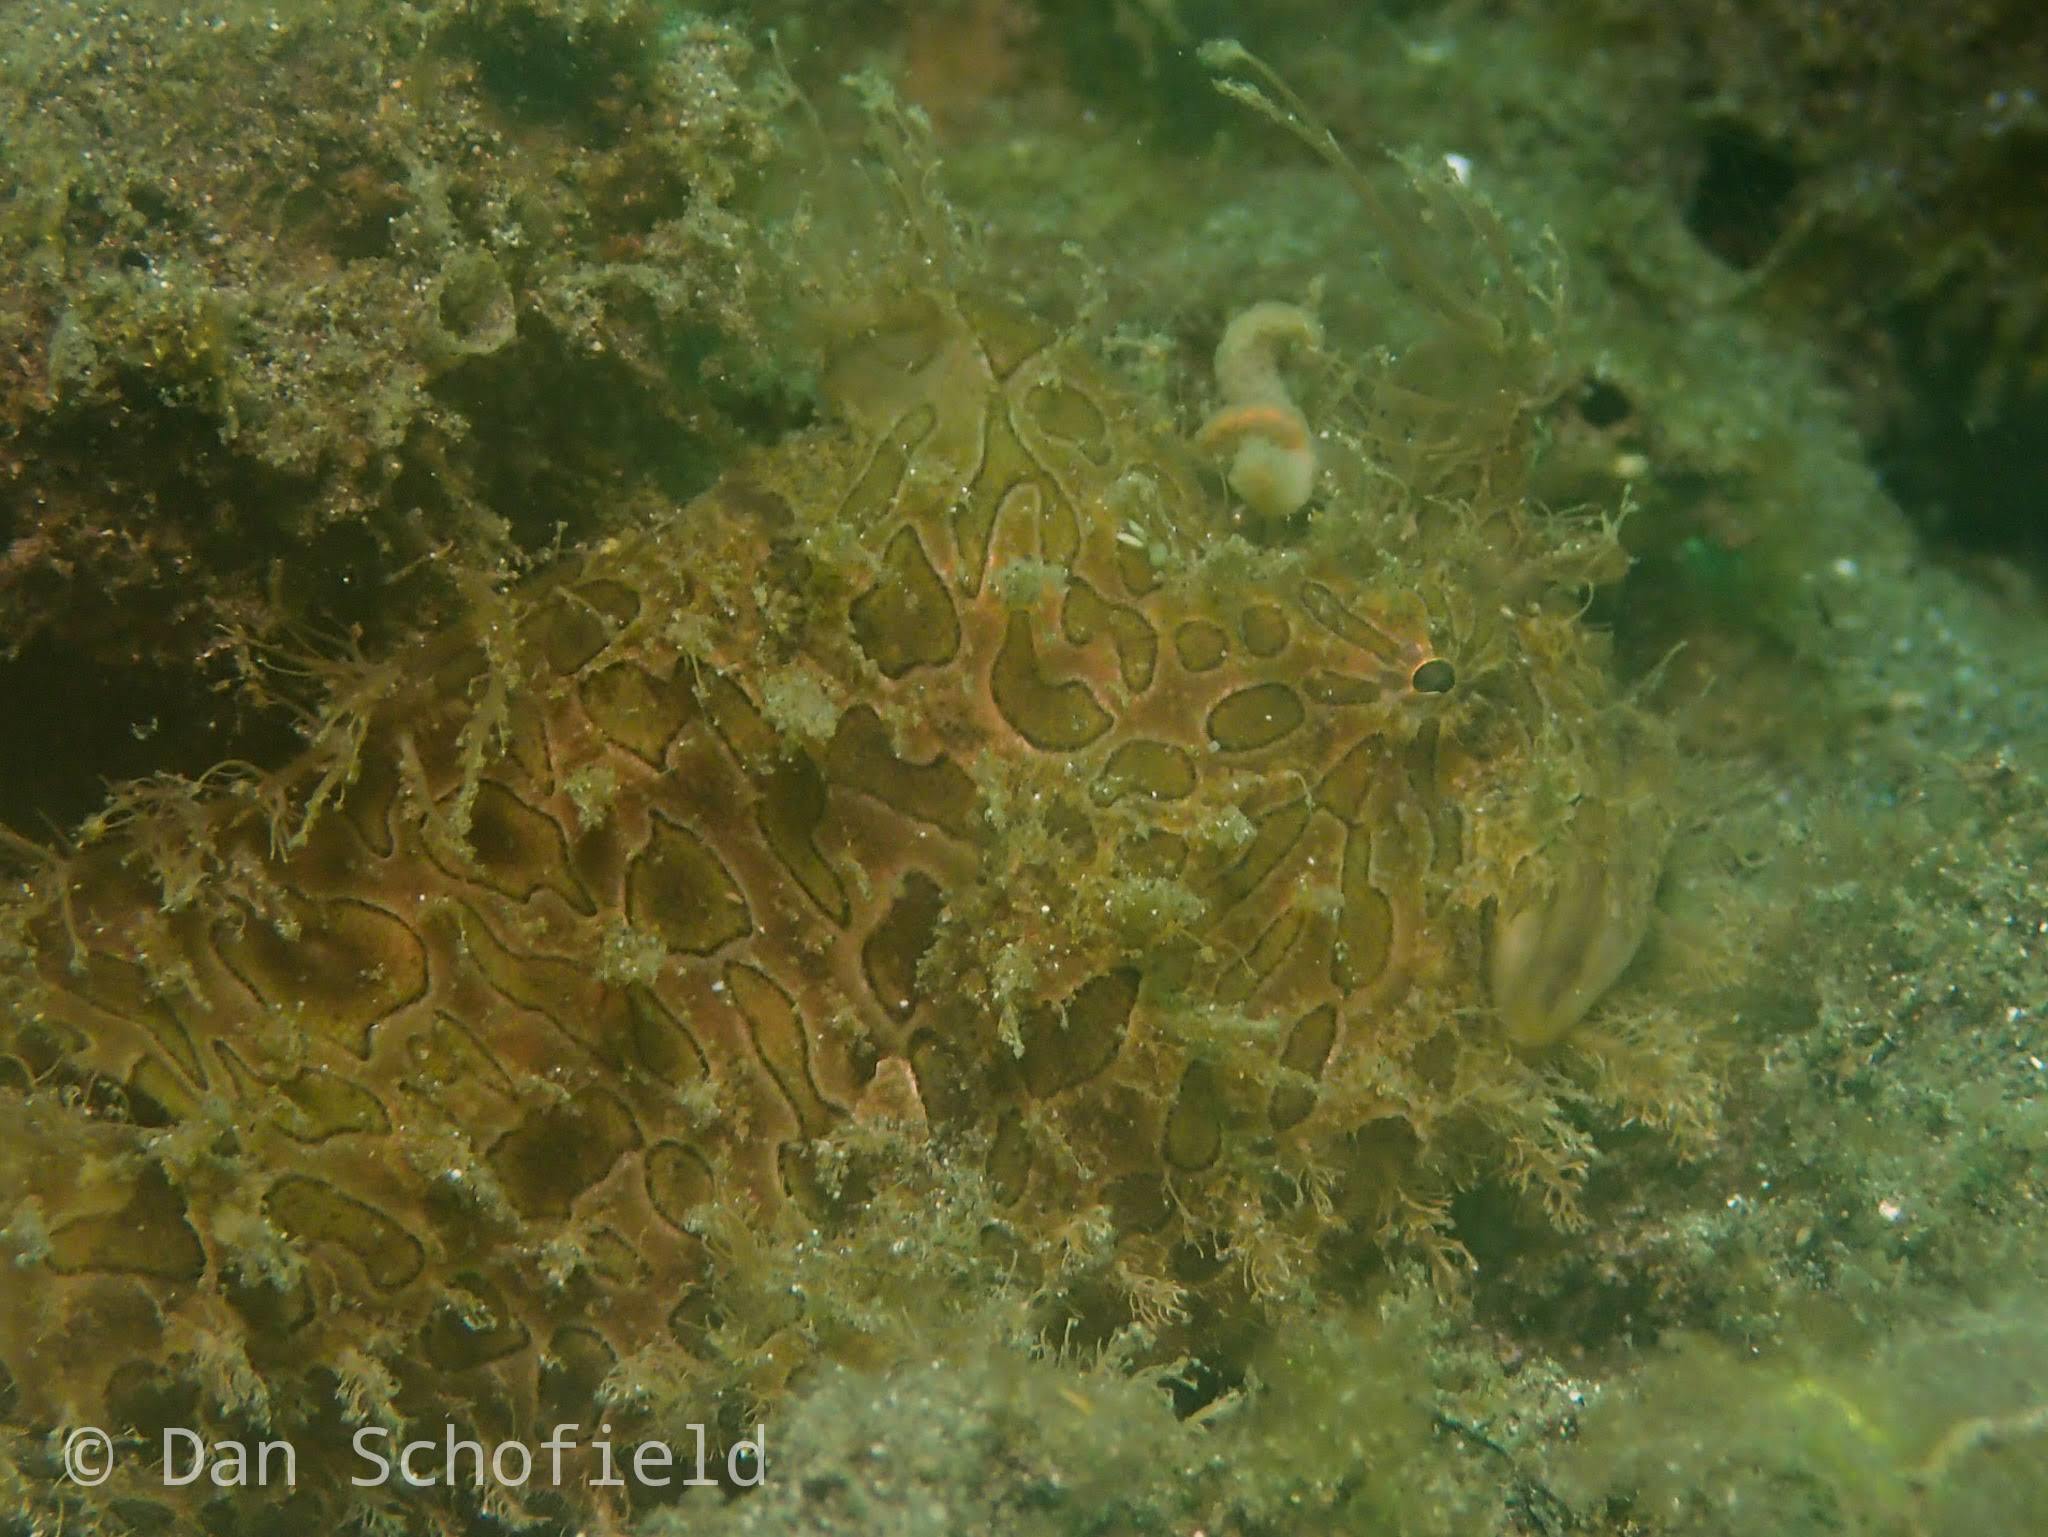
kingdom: Animalia
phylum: Chordata
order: Lophiiformes
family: Antennariidae
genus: Antennarius
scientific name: Antennarius striatus
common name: Striated frogfish
